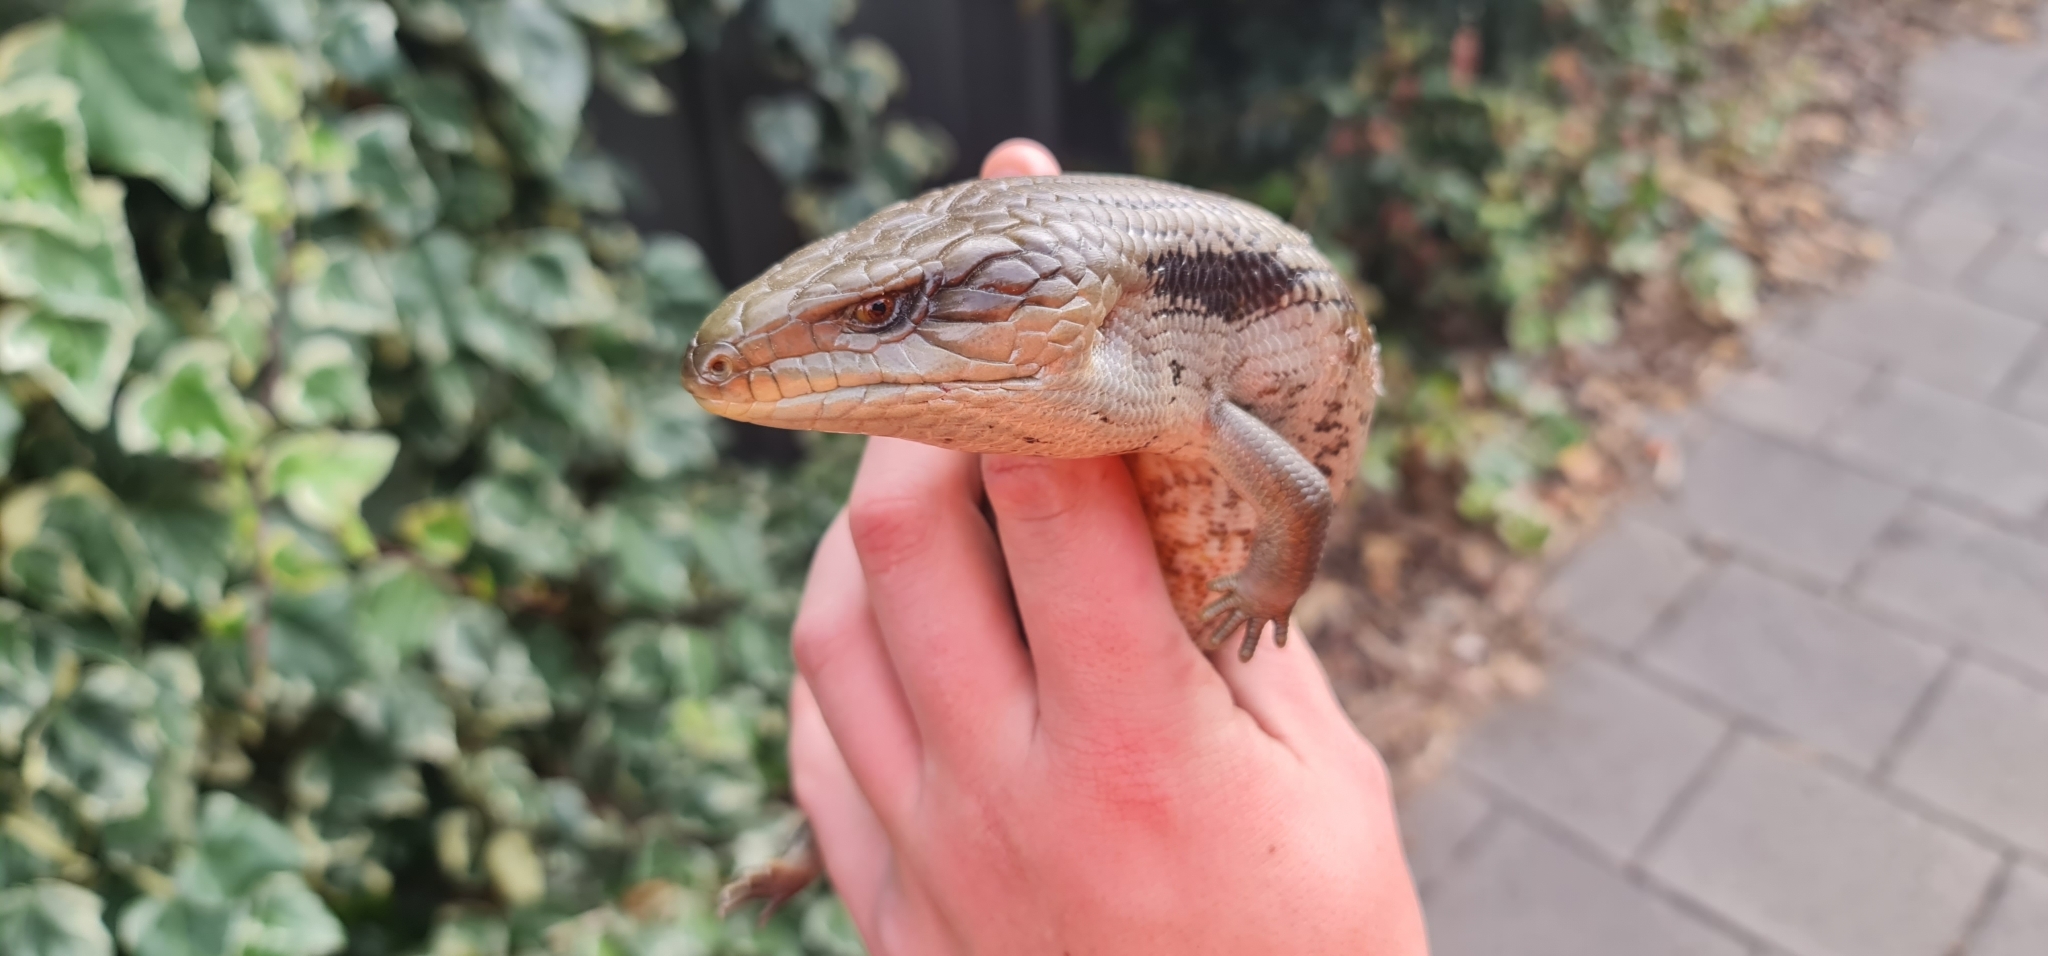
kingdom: Animalia
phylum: Chordata
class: Squamata
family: Scincidae
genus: Tiliqua
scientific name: Tiliqua scincoides
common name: Common bluetongue
